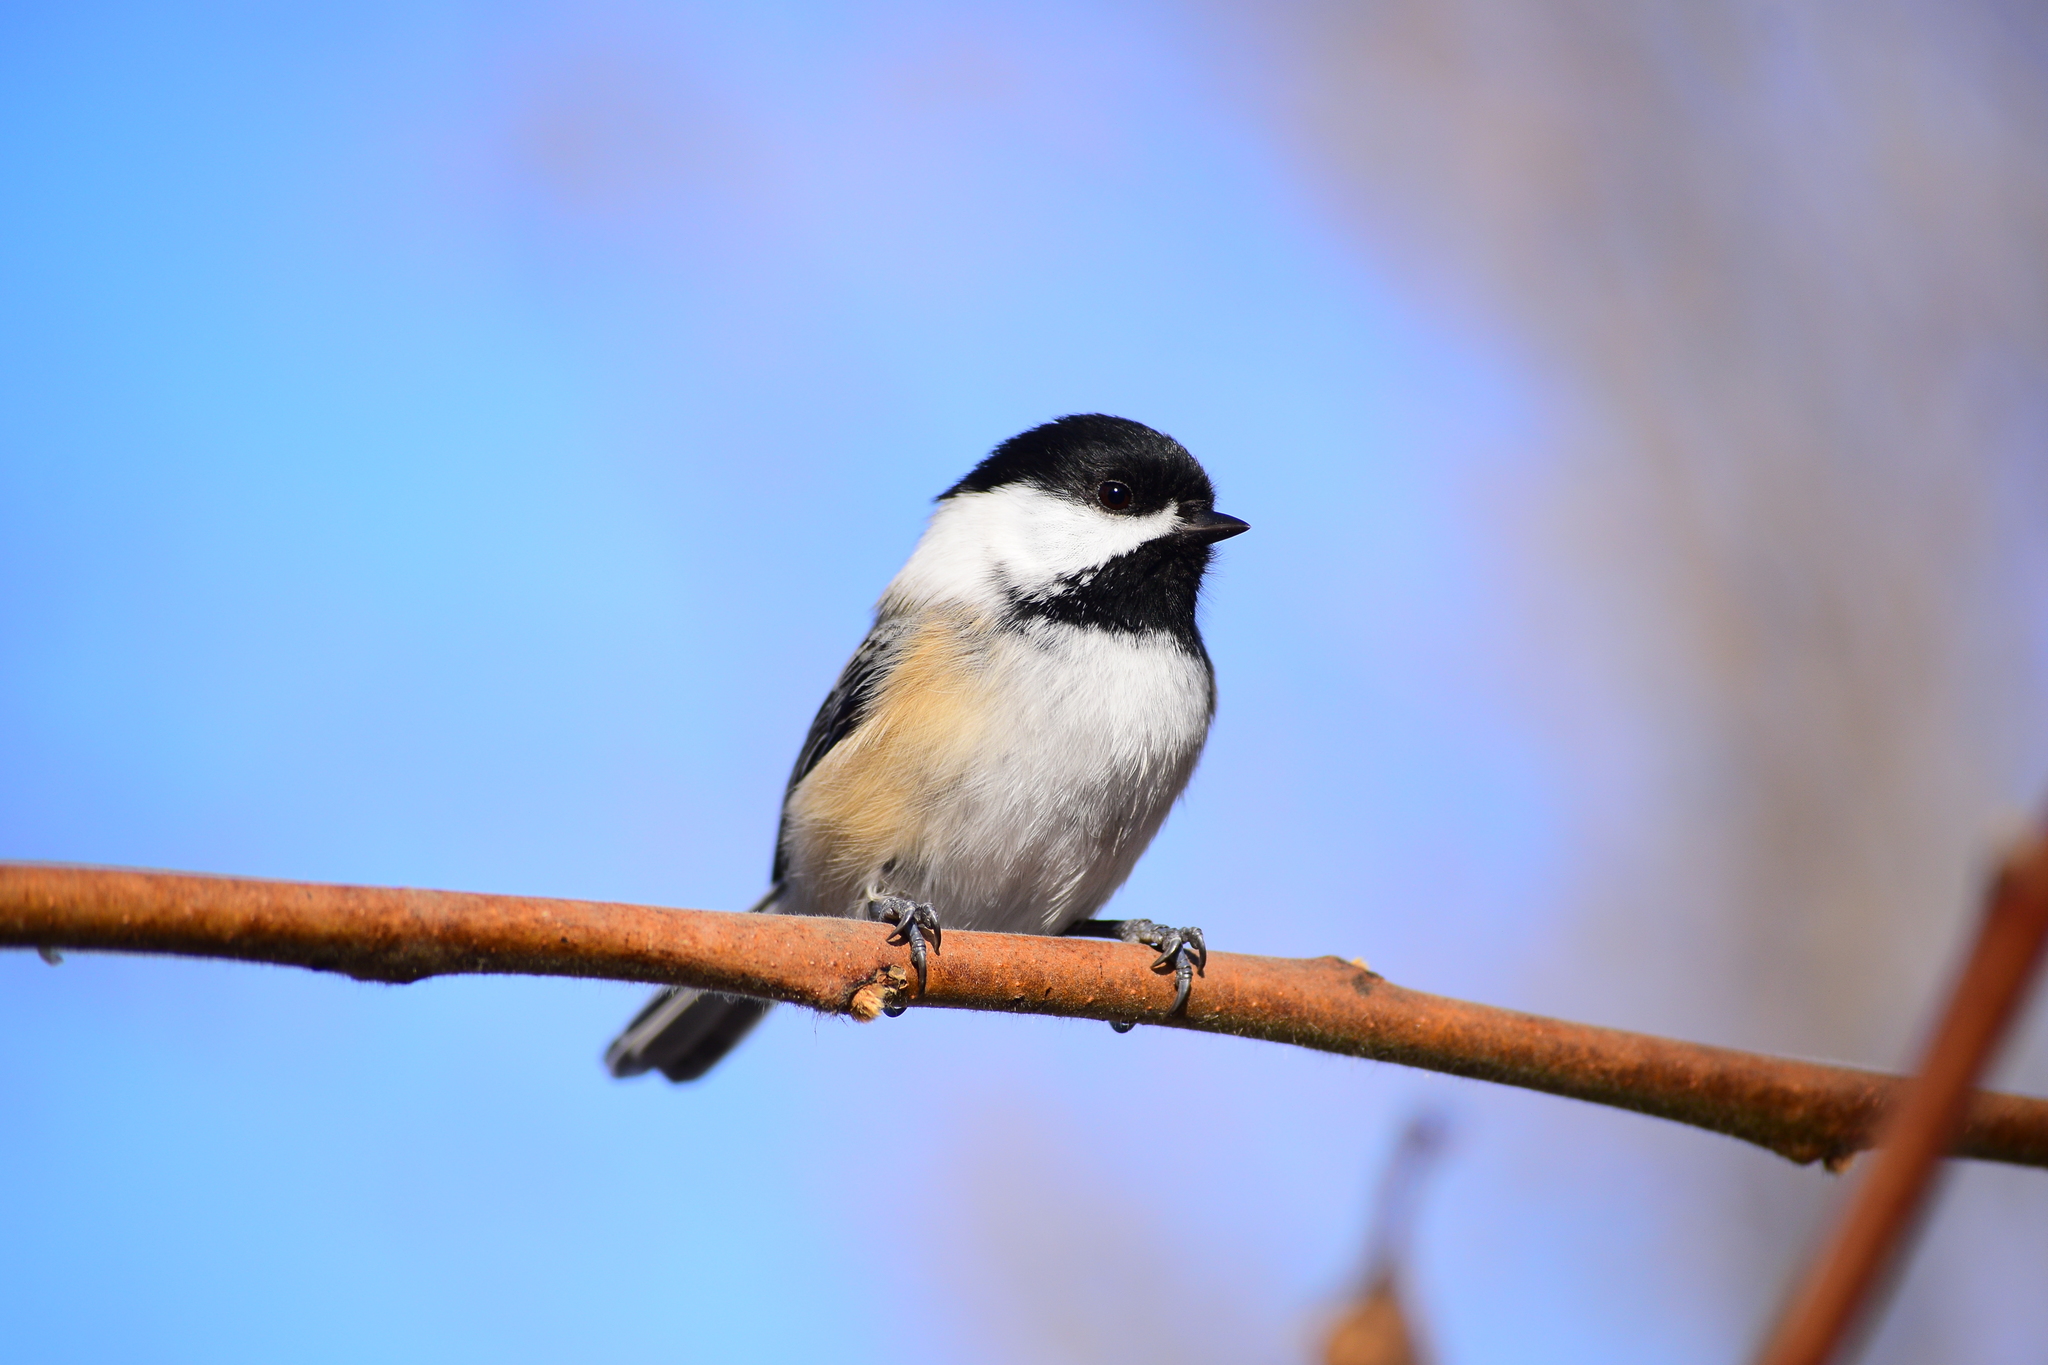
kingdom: Animalia
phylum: Chordata
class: Aves
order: Passeriformes
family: Paridae
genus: Poecile
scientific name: Poecile atricapillus
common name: Black-capped chickadee
